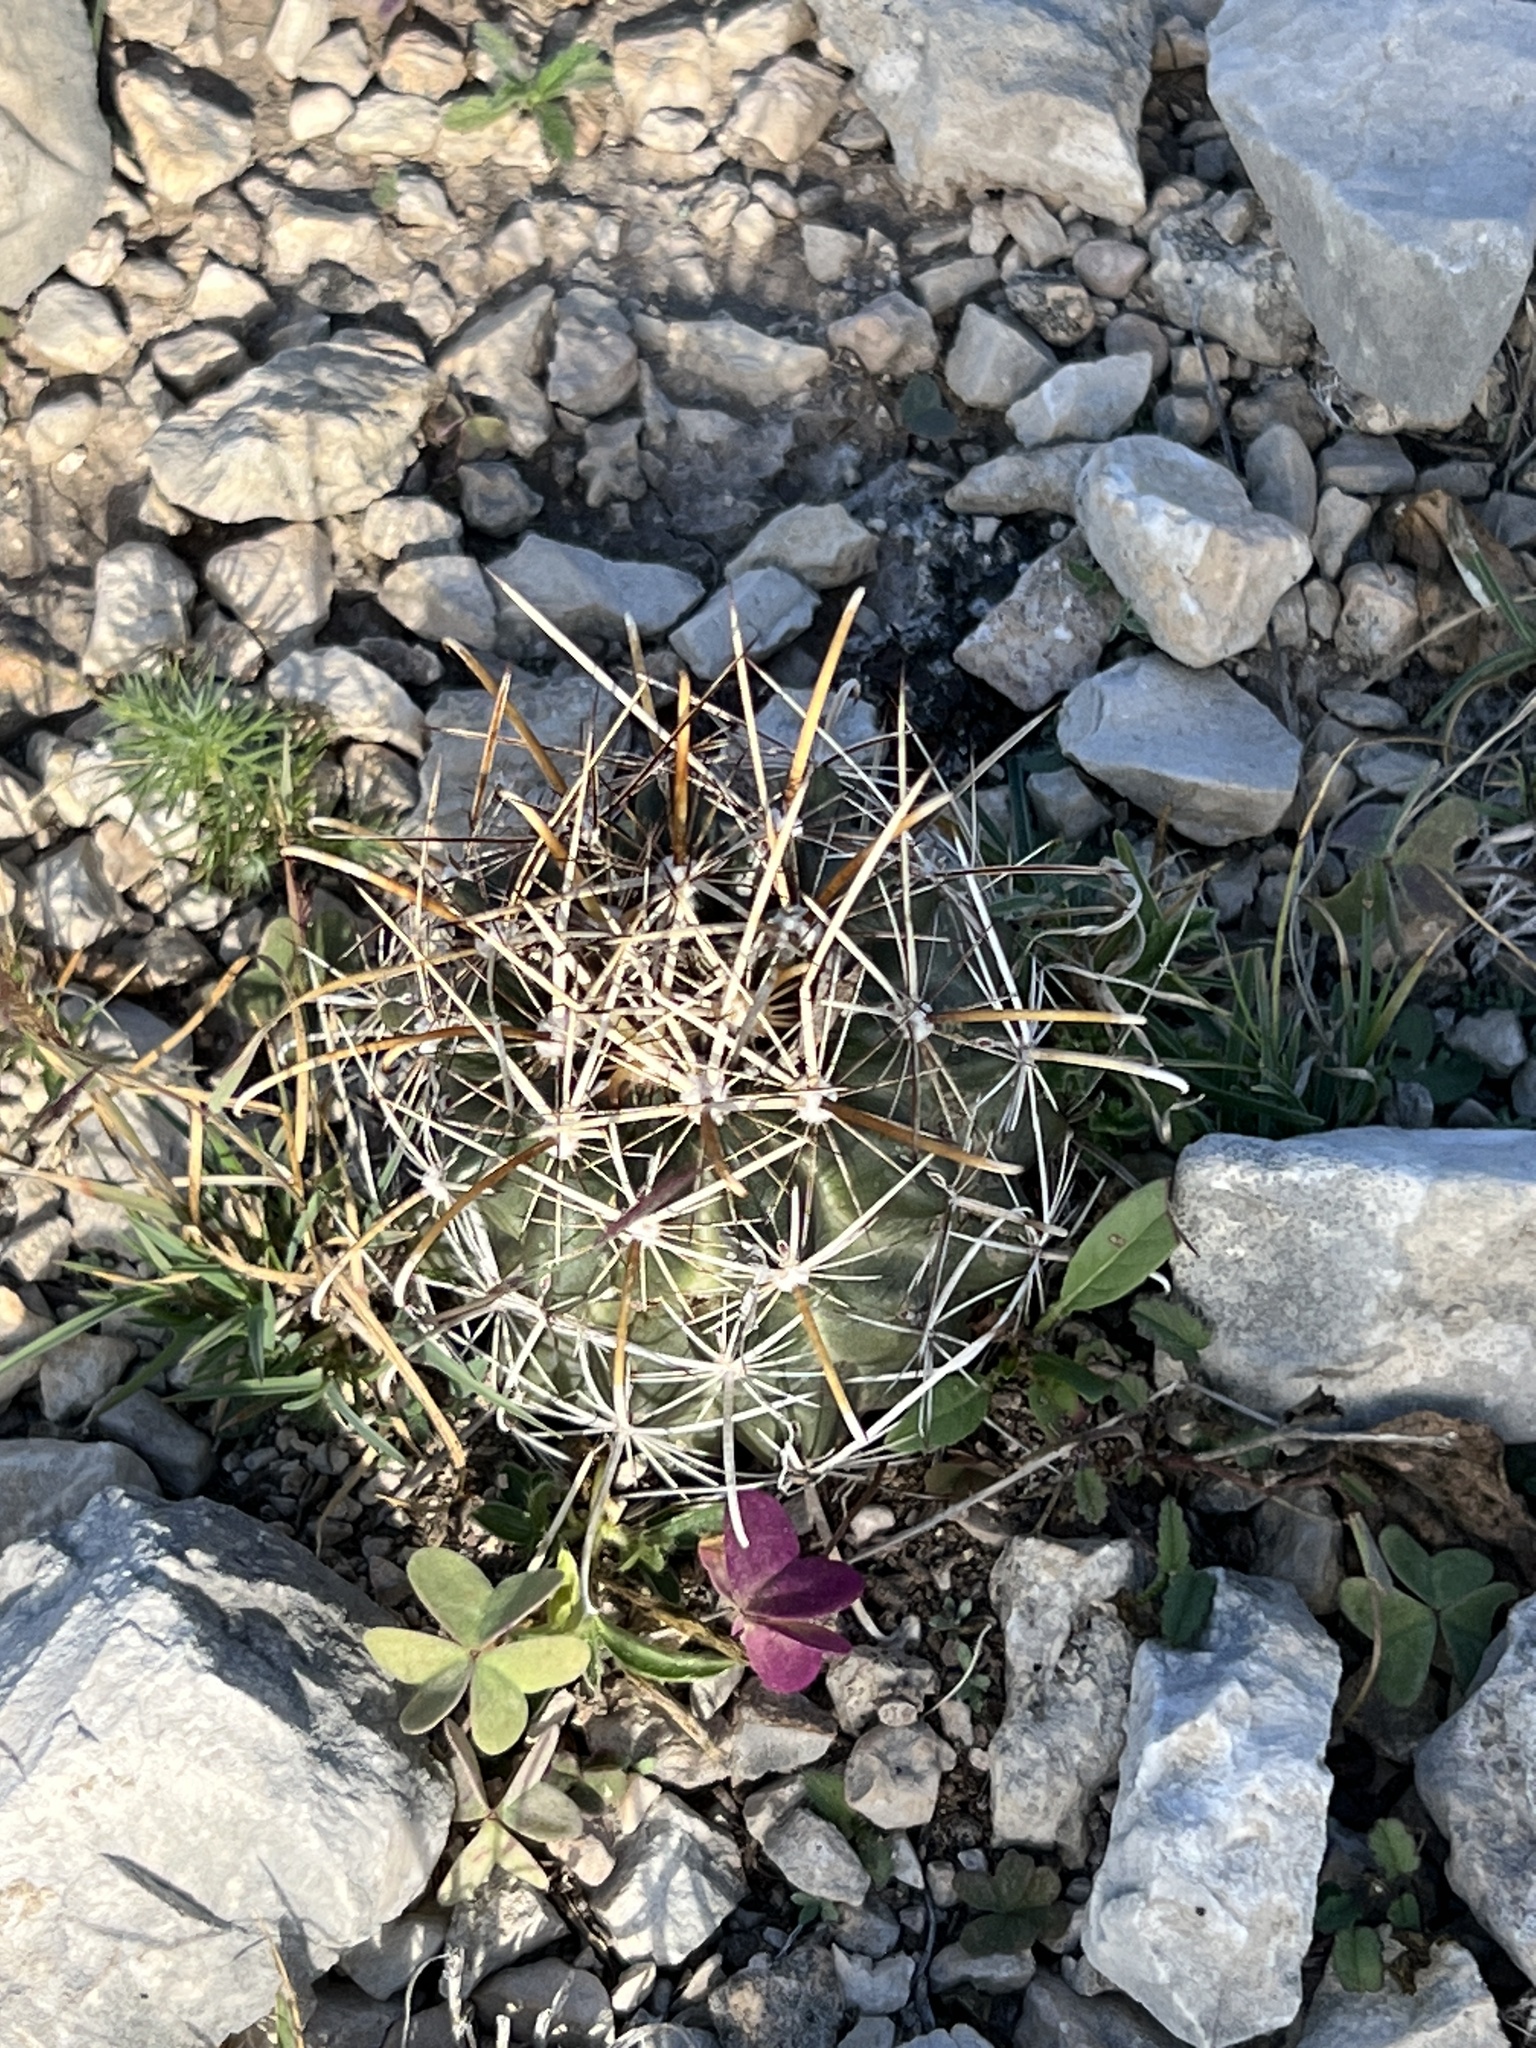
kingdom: Plantae
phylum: Tracheophyta
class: Magnoliopsida
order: Caryophyllales
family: Cactaceae
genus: Sclerocactus
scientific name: Sclerocactus brevihamatus
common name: Engelmann's fishhook cactus
